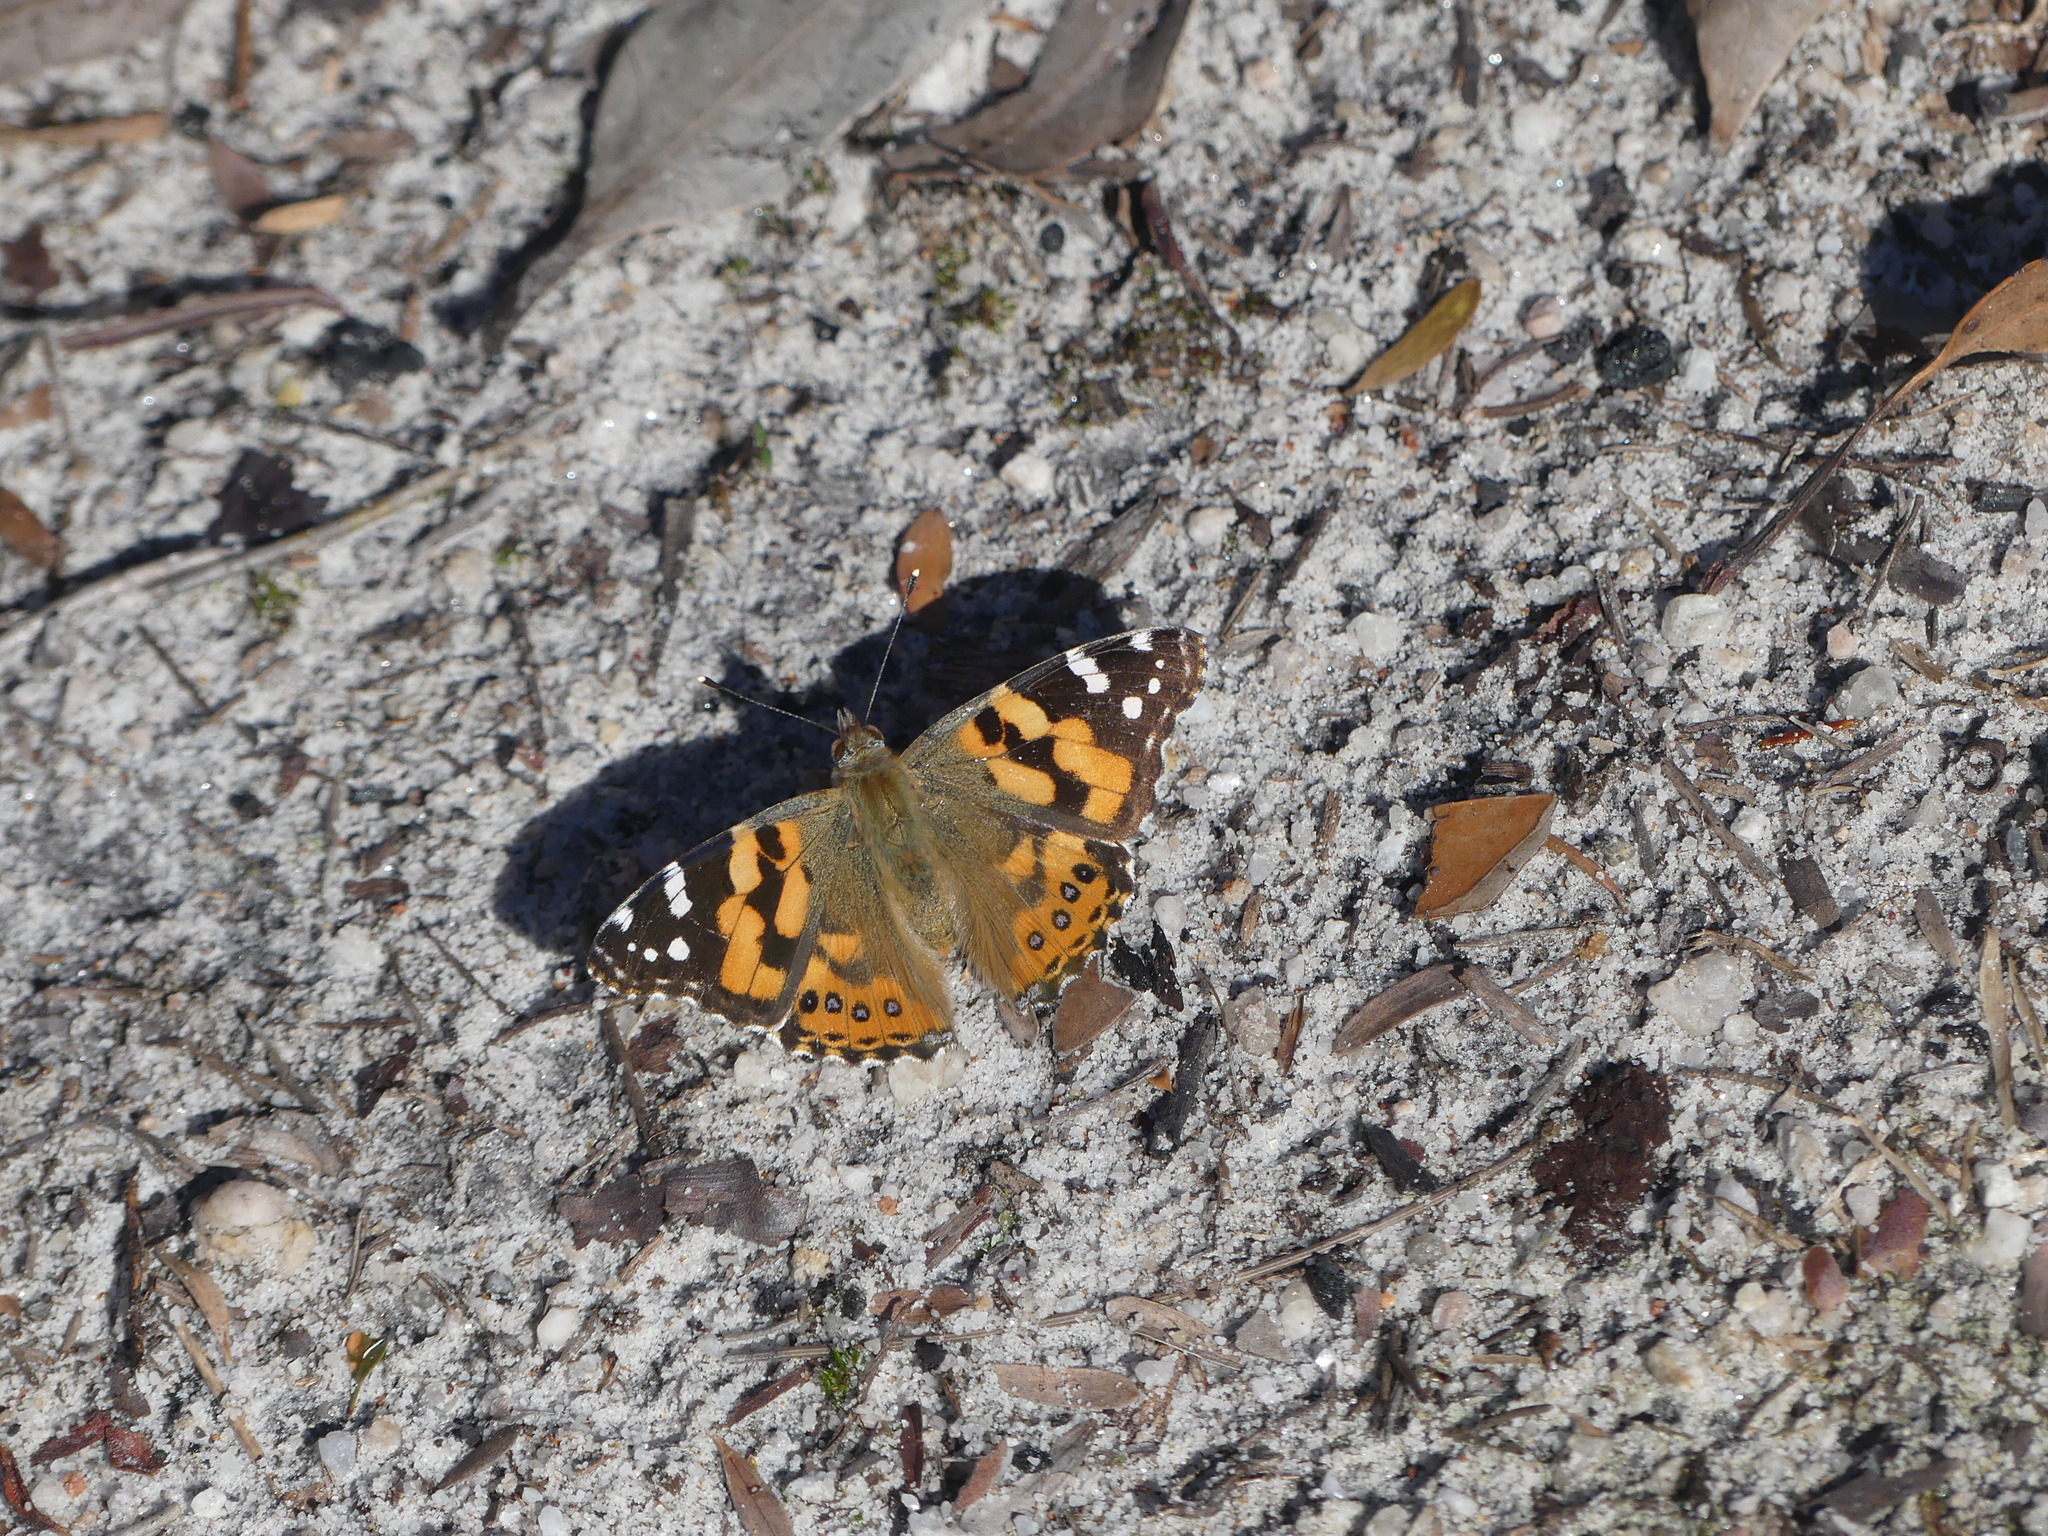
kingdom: Animalia
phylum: Arthropoda
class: Insecta
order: Lepidoptera
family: Nymphalidae
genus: Vanessa
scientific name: Vanessa kershawi
